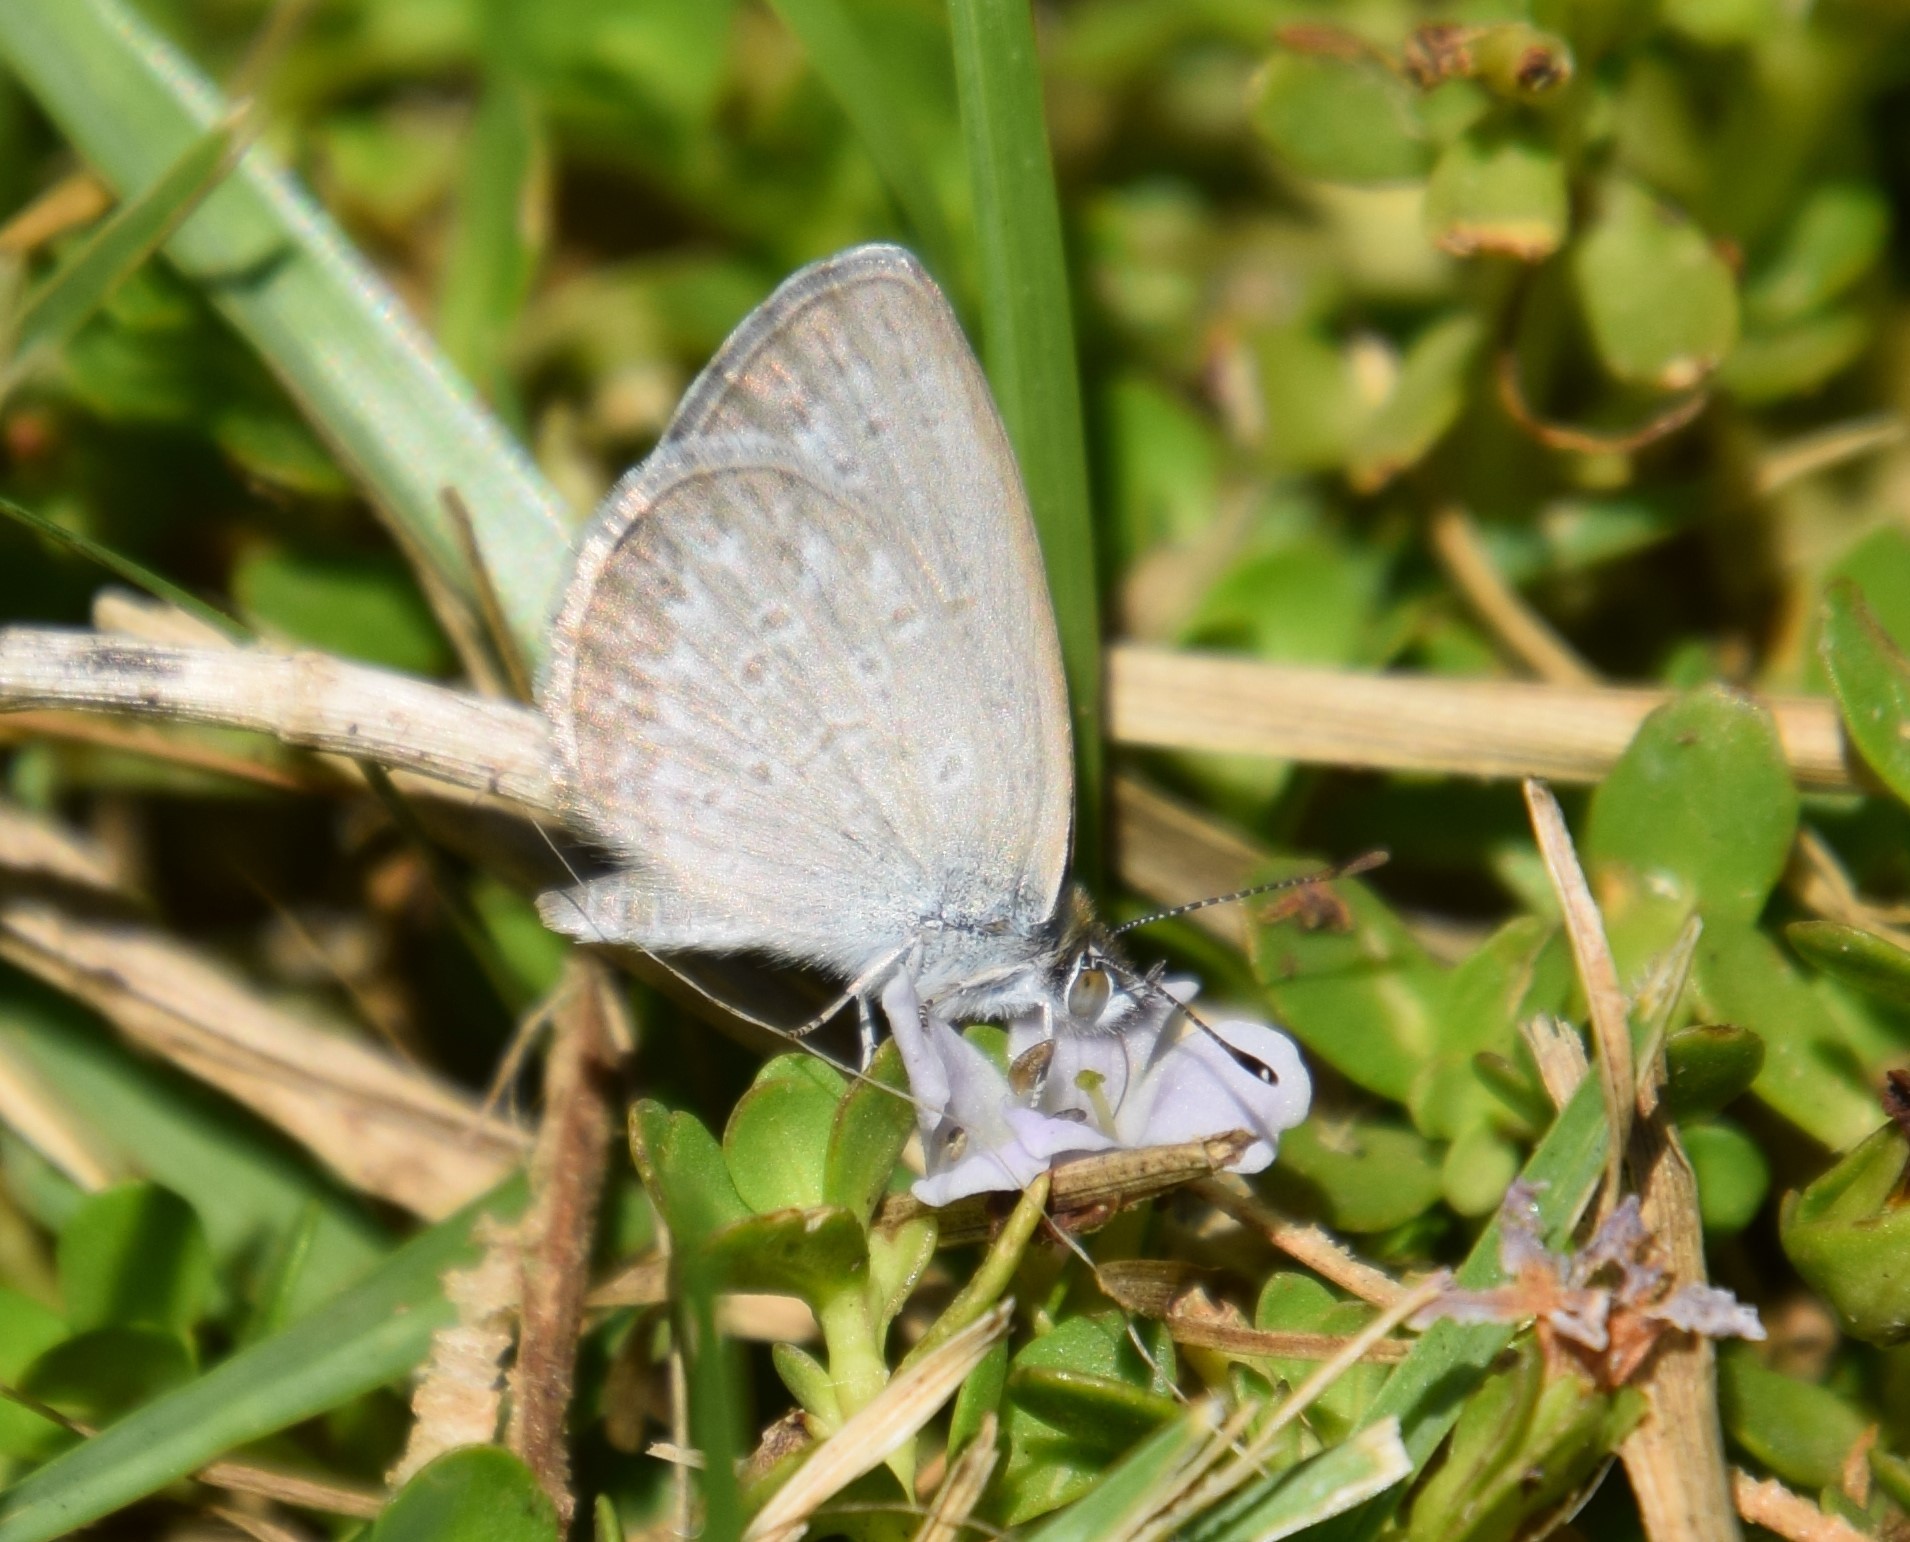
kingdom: Animalia
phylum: Arthropoda
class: Insecta
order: Lepidoptera
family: Lycaenidae
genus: Zizina
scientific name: Zizina labradus
